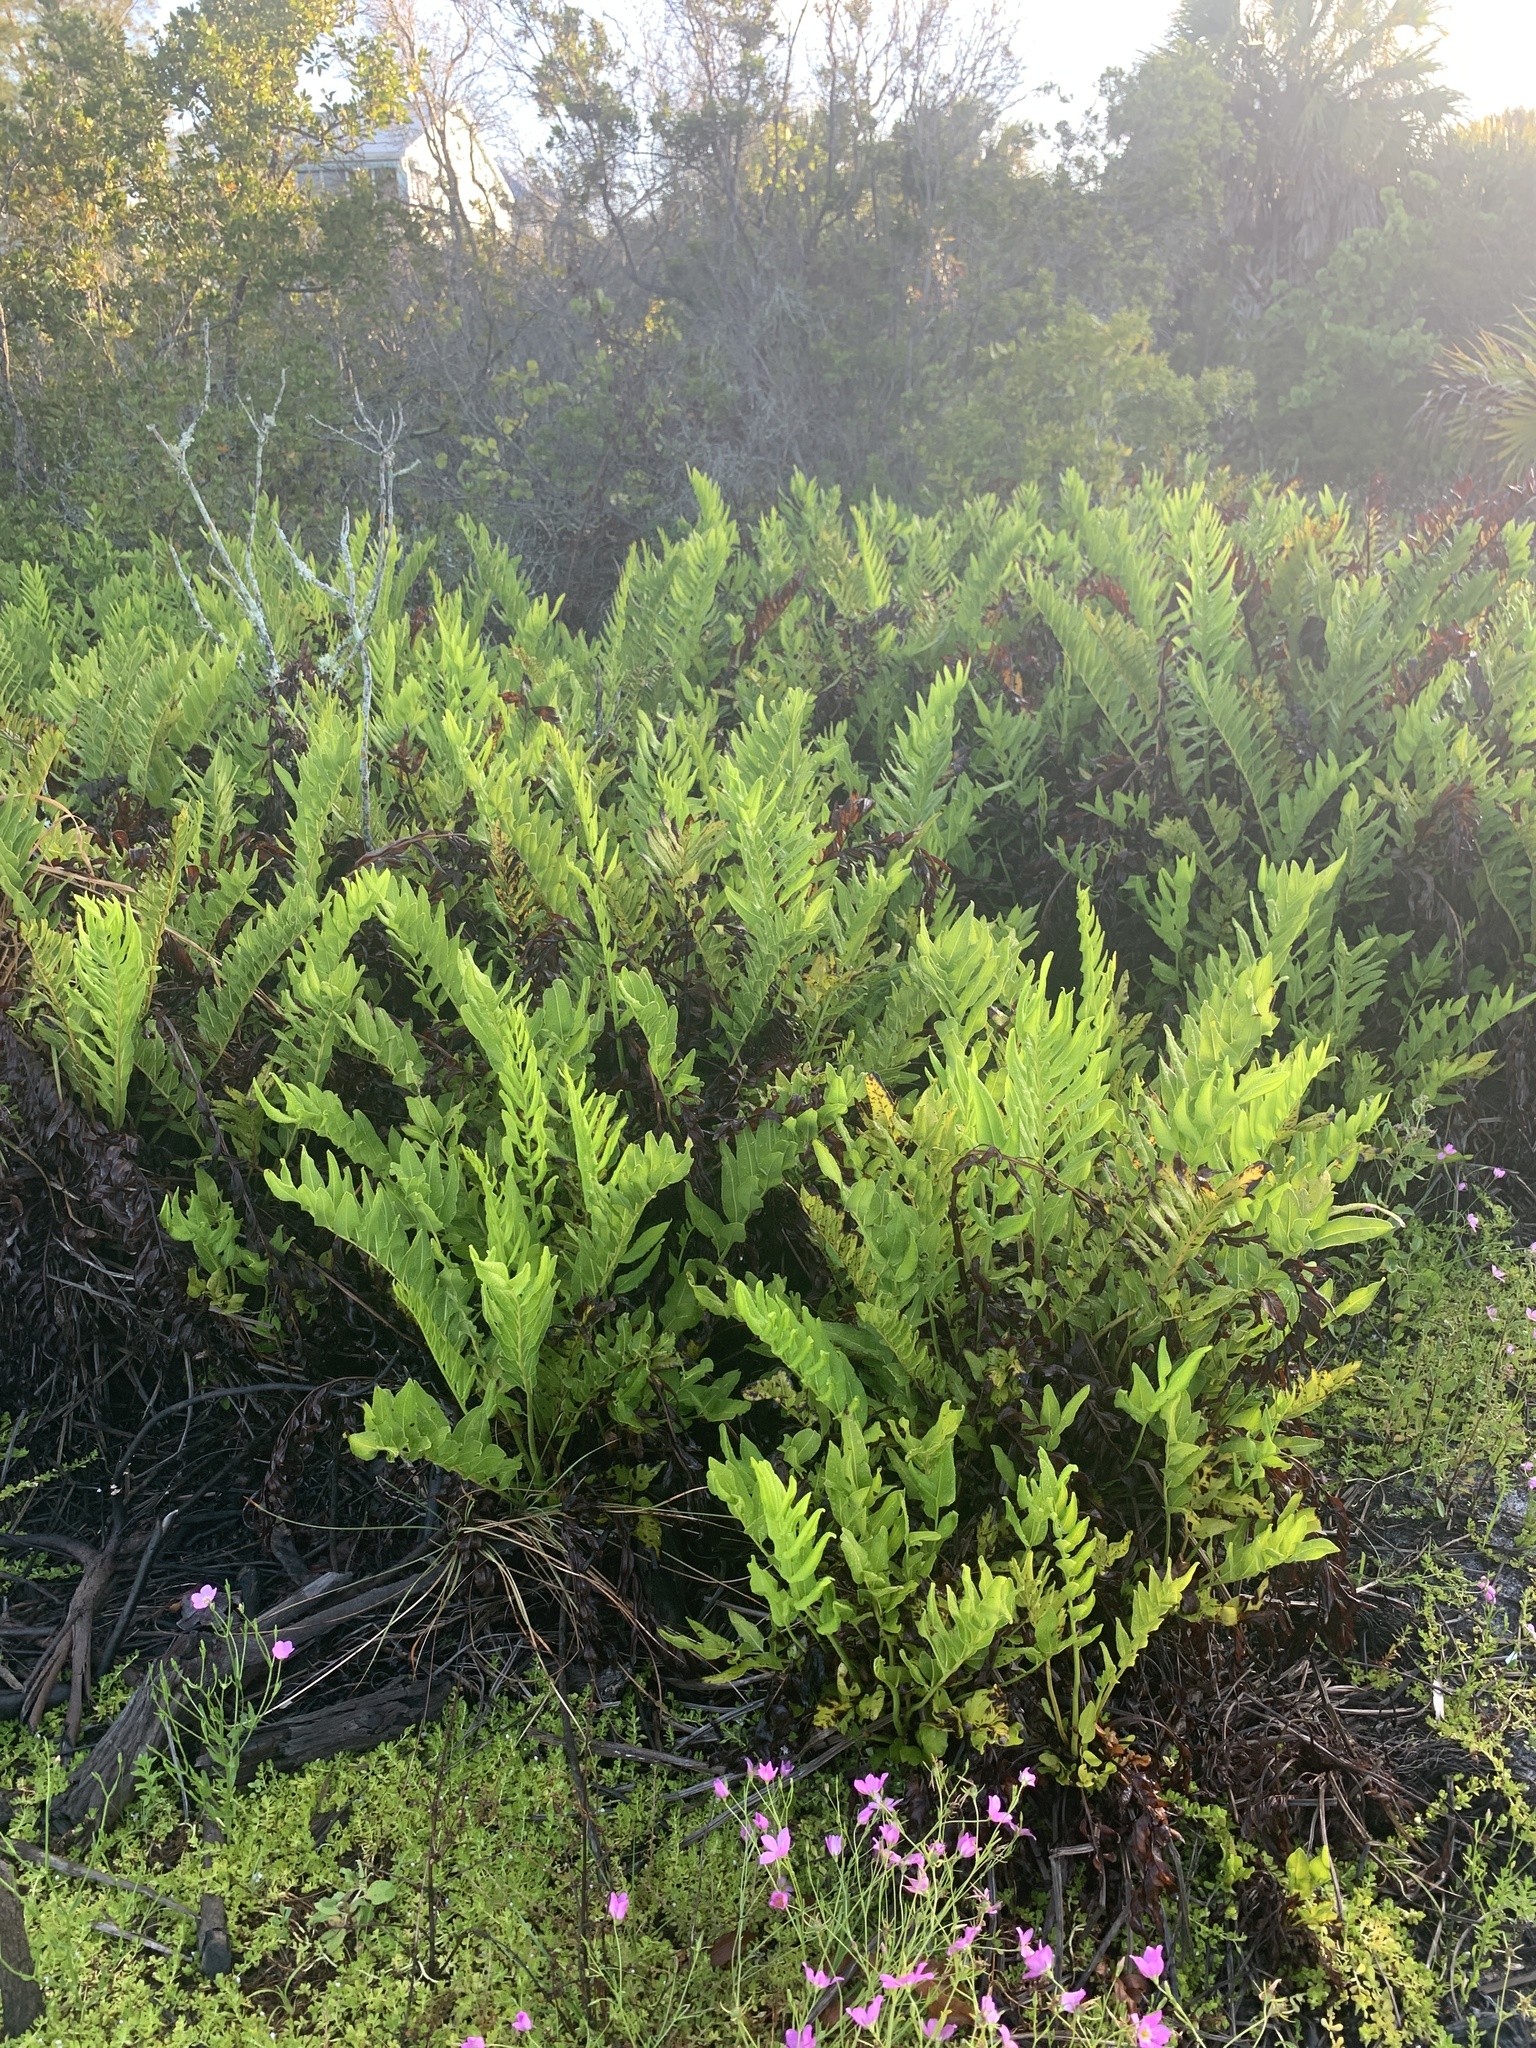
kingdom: Plantae
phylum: Tracheophyta
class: Polypodiopsida
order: Polypodiales
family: Pteridaceae
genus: Acrostichum
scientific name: Acrostichum danaeifolium
